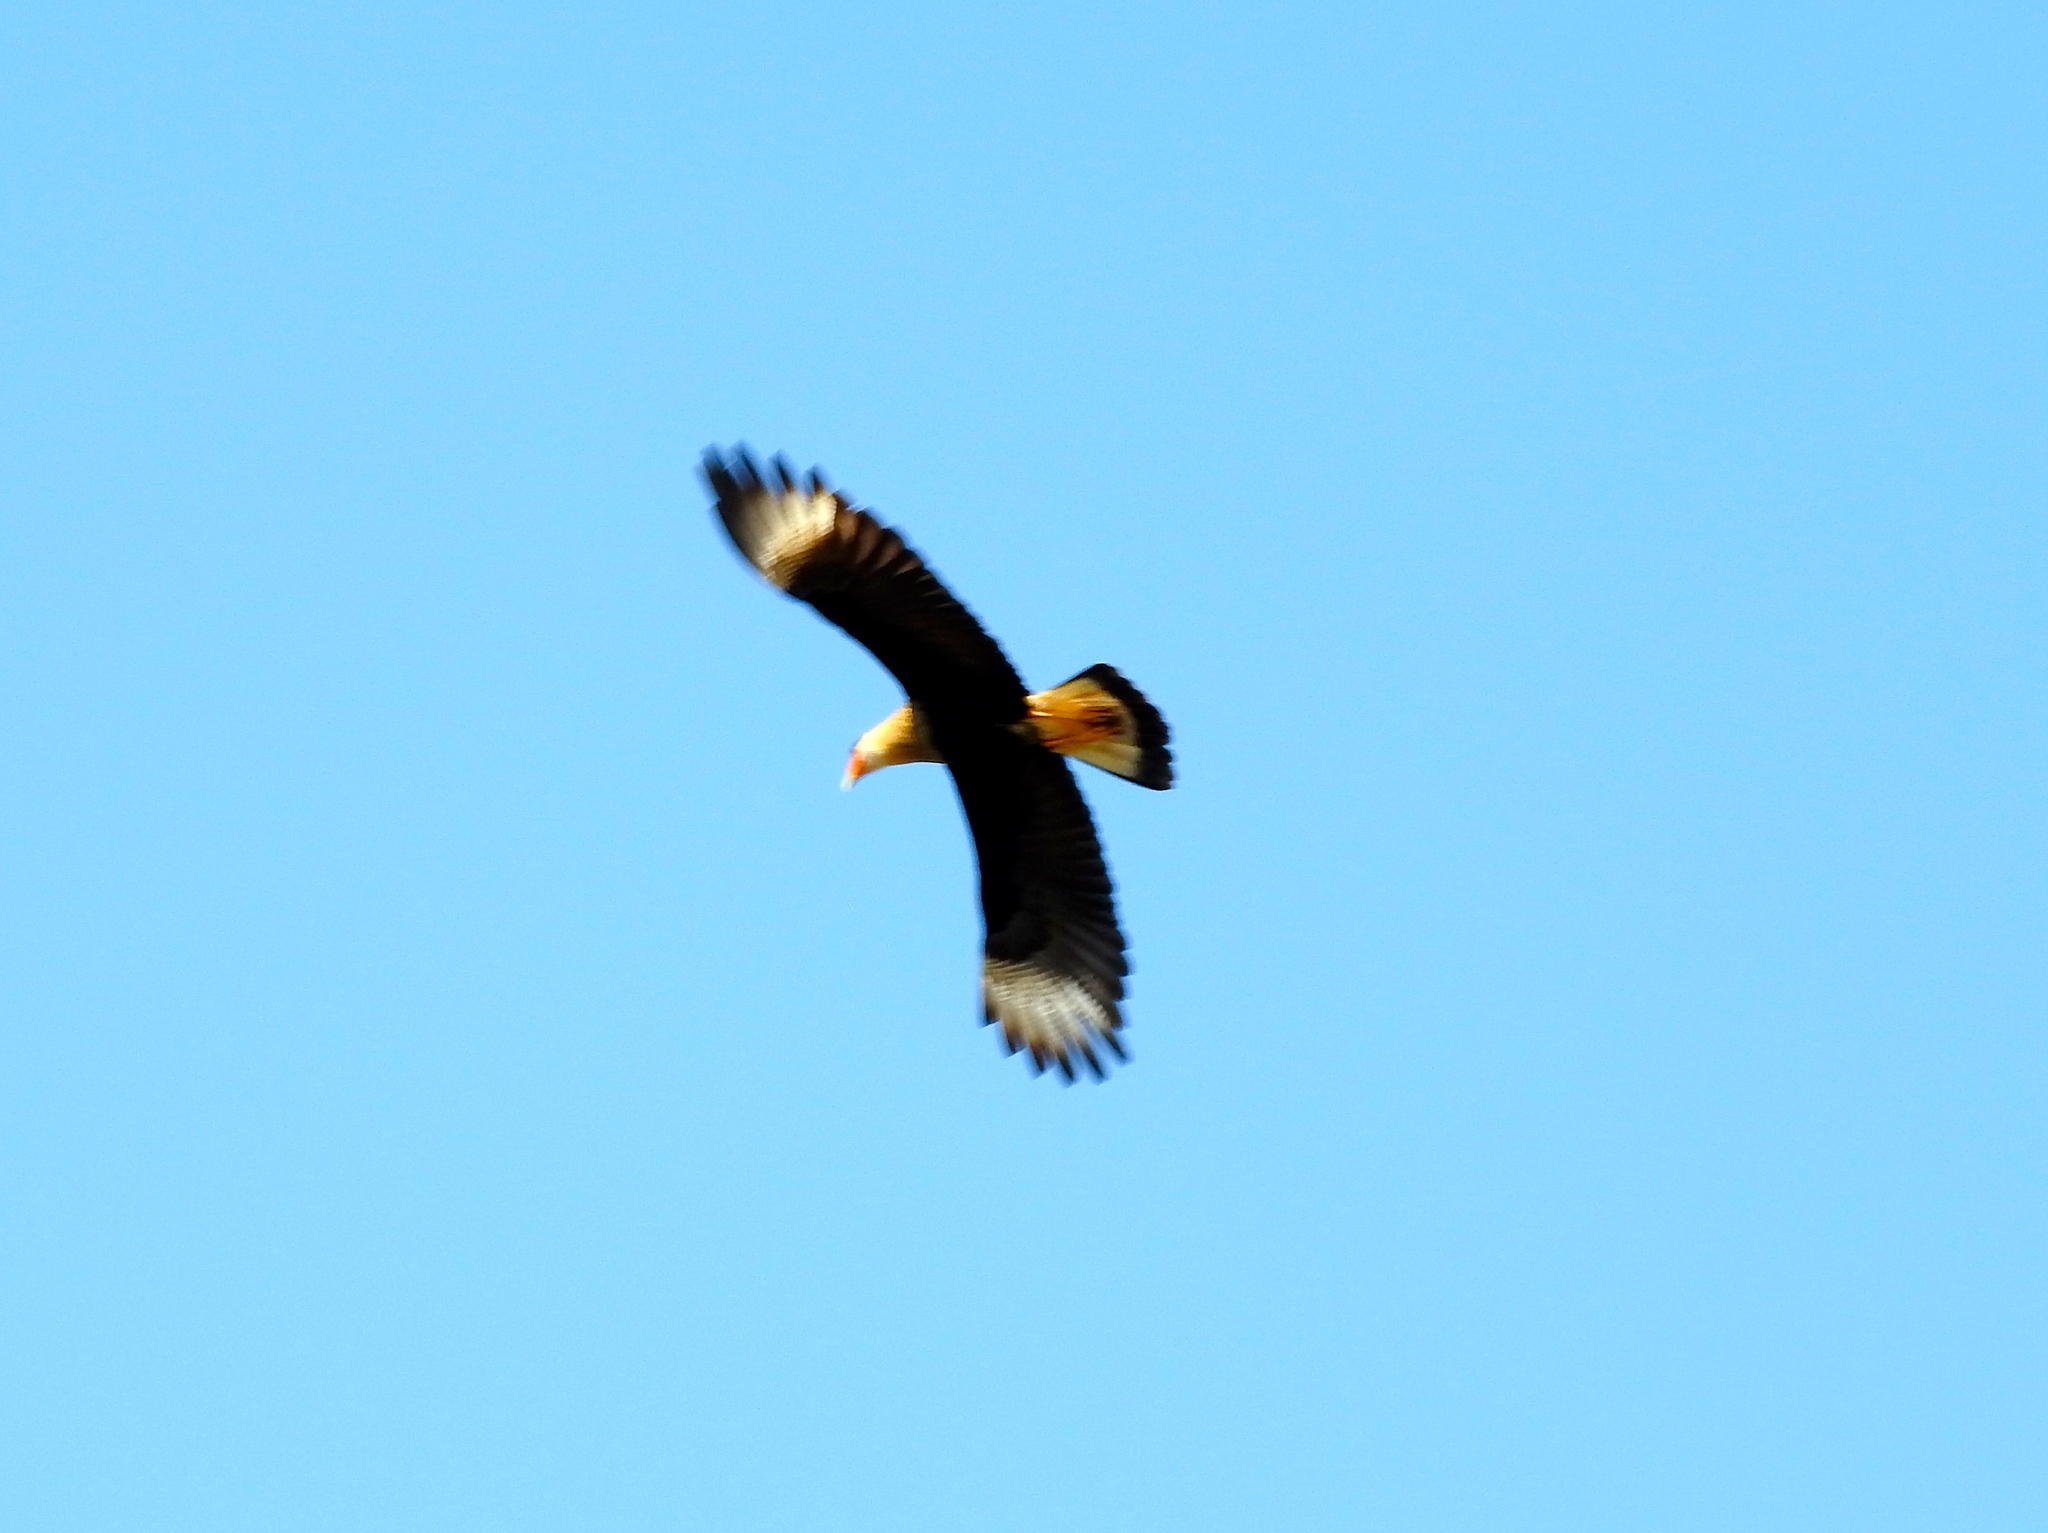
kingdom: Animalia
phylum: Chordata
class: Aves
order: Falconiformes
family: Falconidae
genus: Caracara
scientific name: Caracara plancus
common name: Southern caracara
